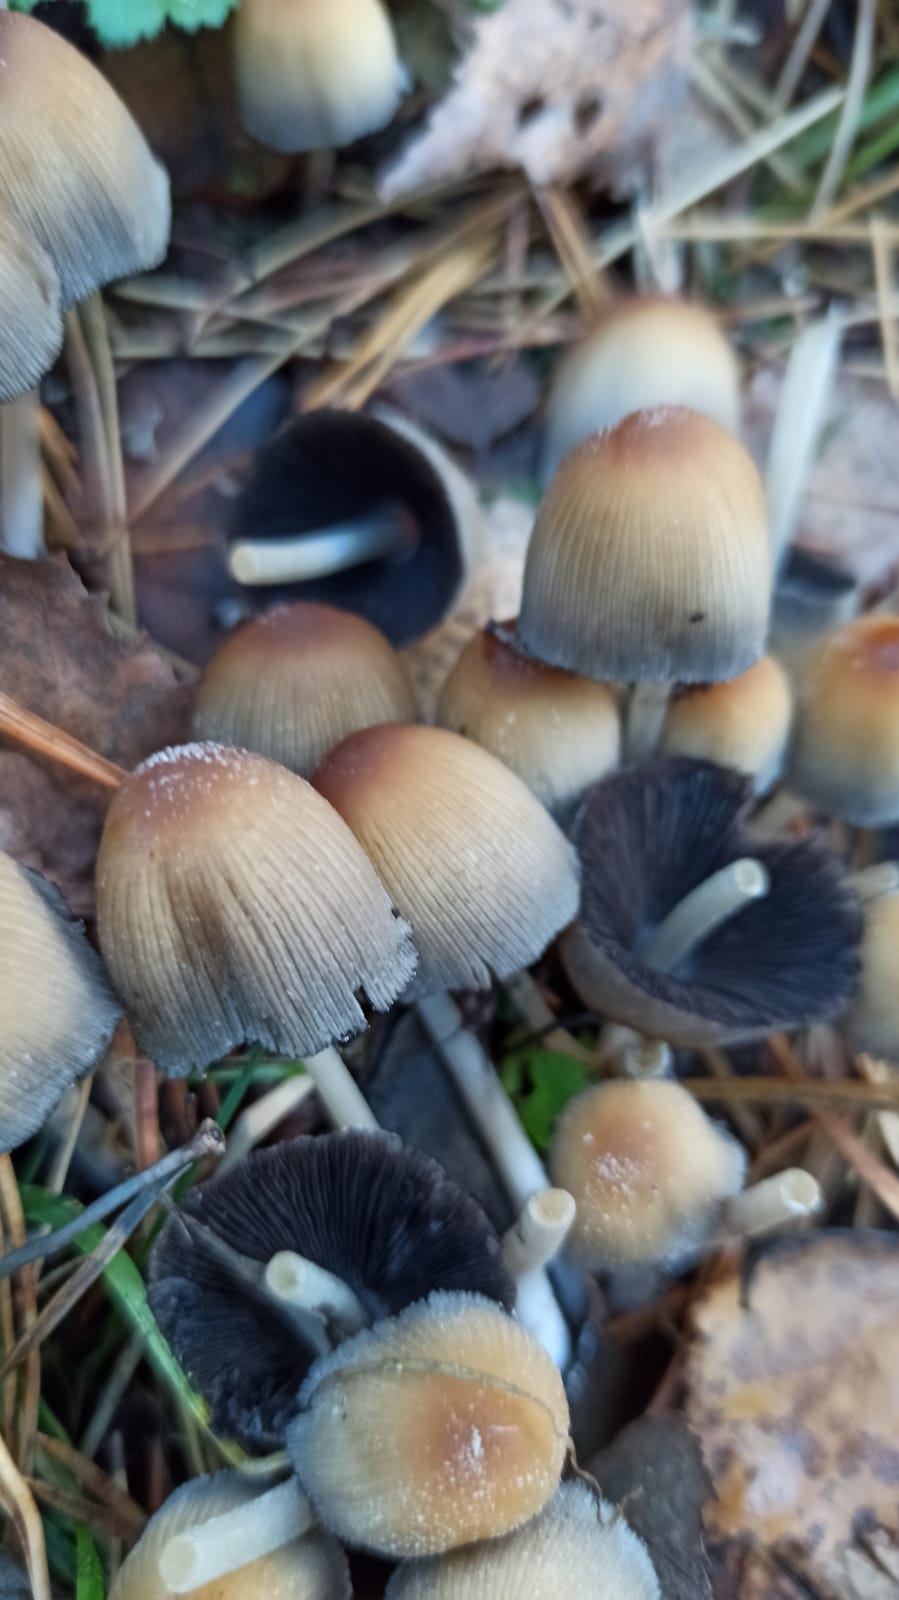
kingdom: Fungi
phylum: Basidiomycota
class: Agaricomycetes
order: Agaricales
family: Psathyrellaceae
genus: Coprinellus
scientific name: Coprinellus micaceus
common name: Glistening ink-cap
